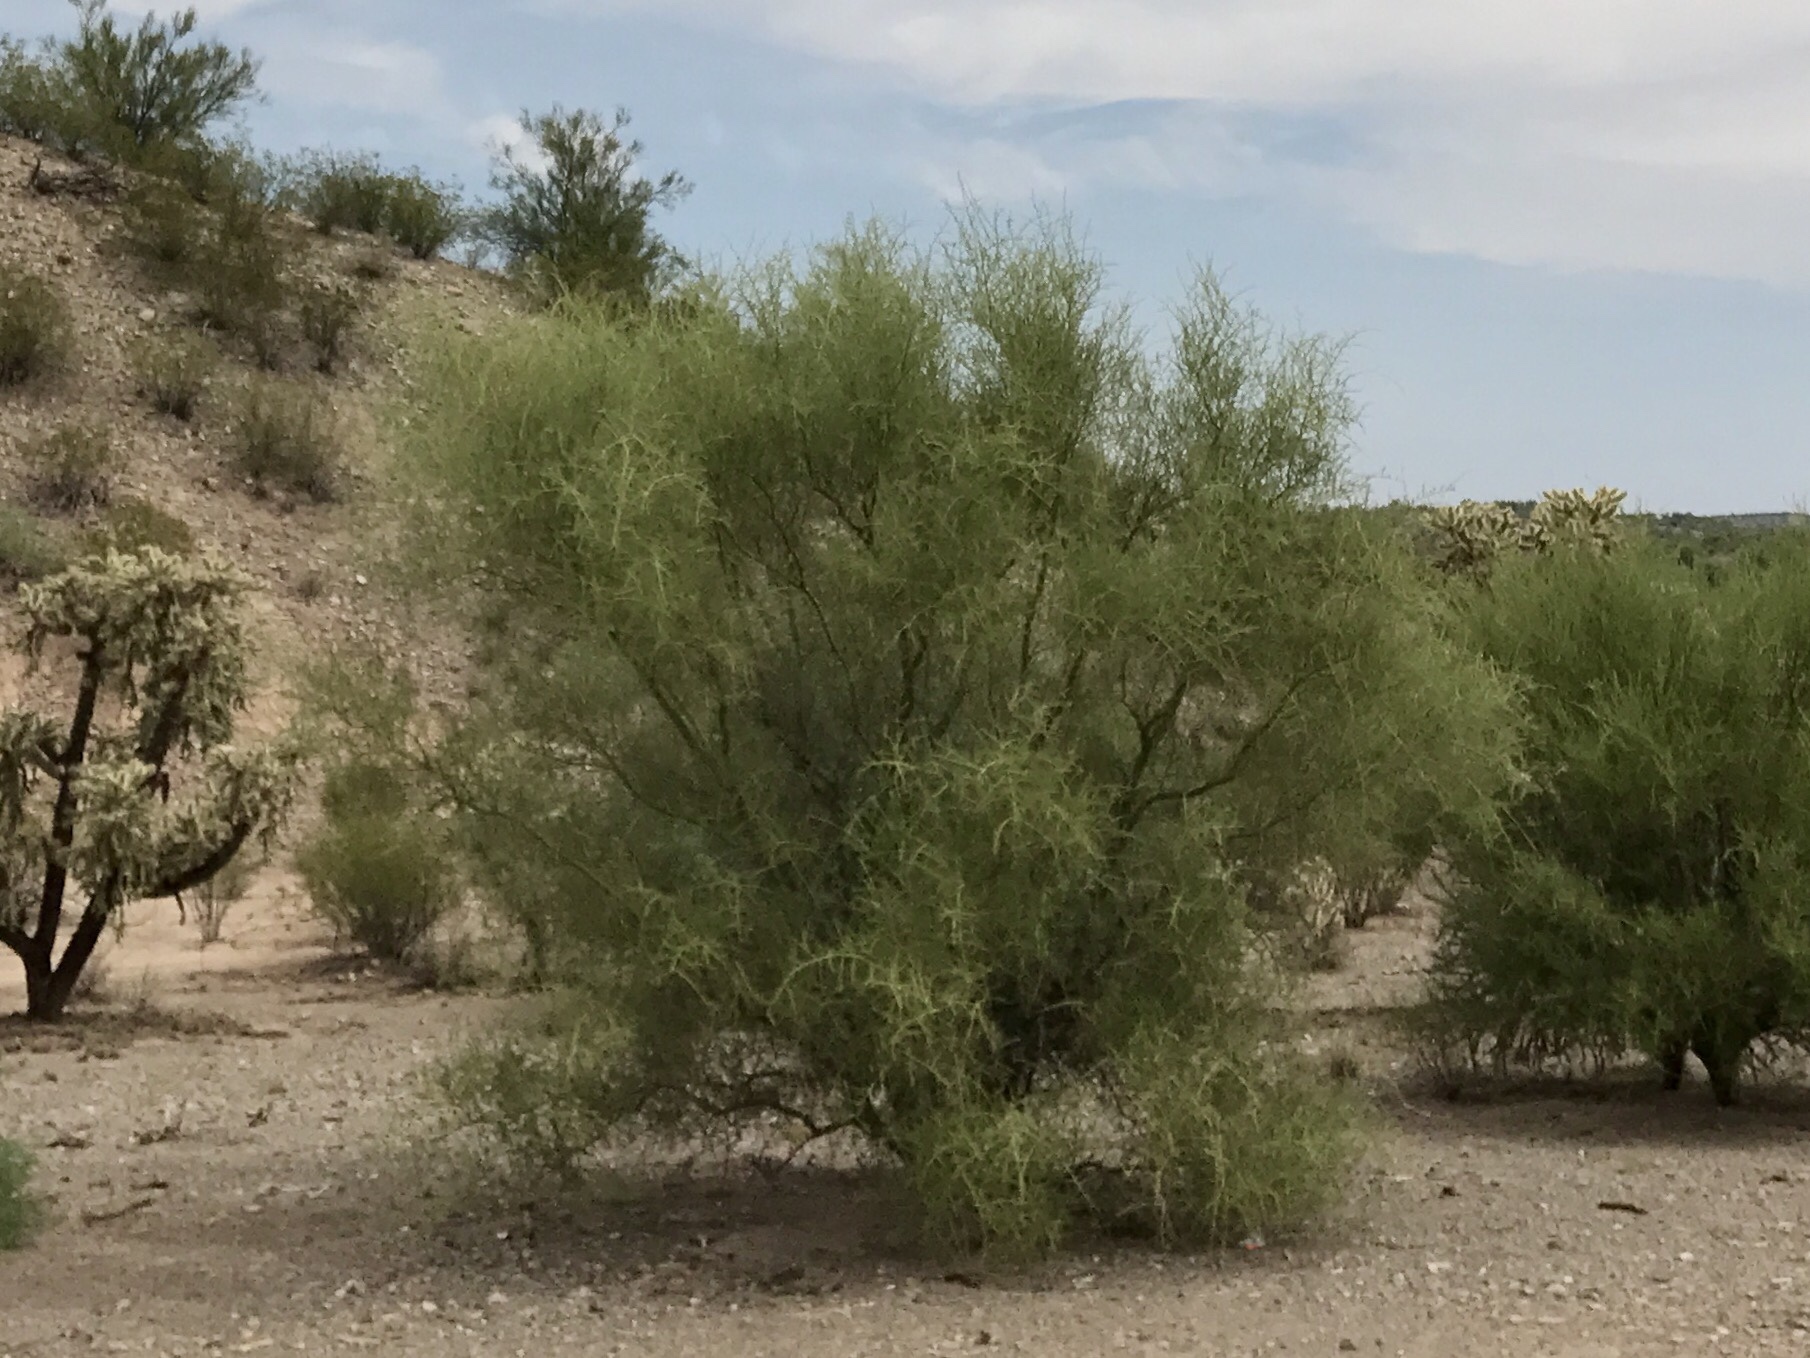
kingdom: Plantae
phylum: Tracheophyta
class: Magnoliopsida
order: Fabales
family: Fabaceae
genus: Parkinsonia
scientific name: Parkinsonia microphylla
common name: Yellow paloverde
